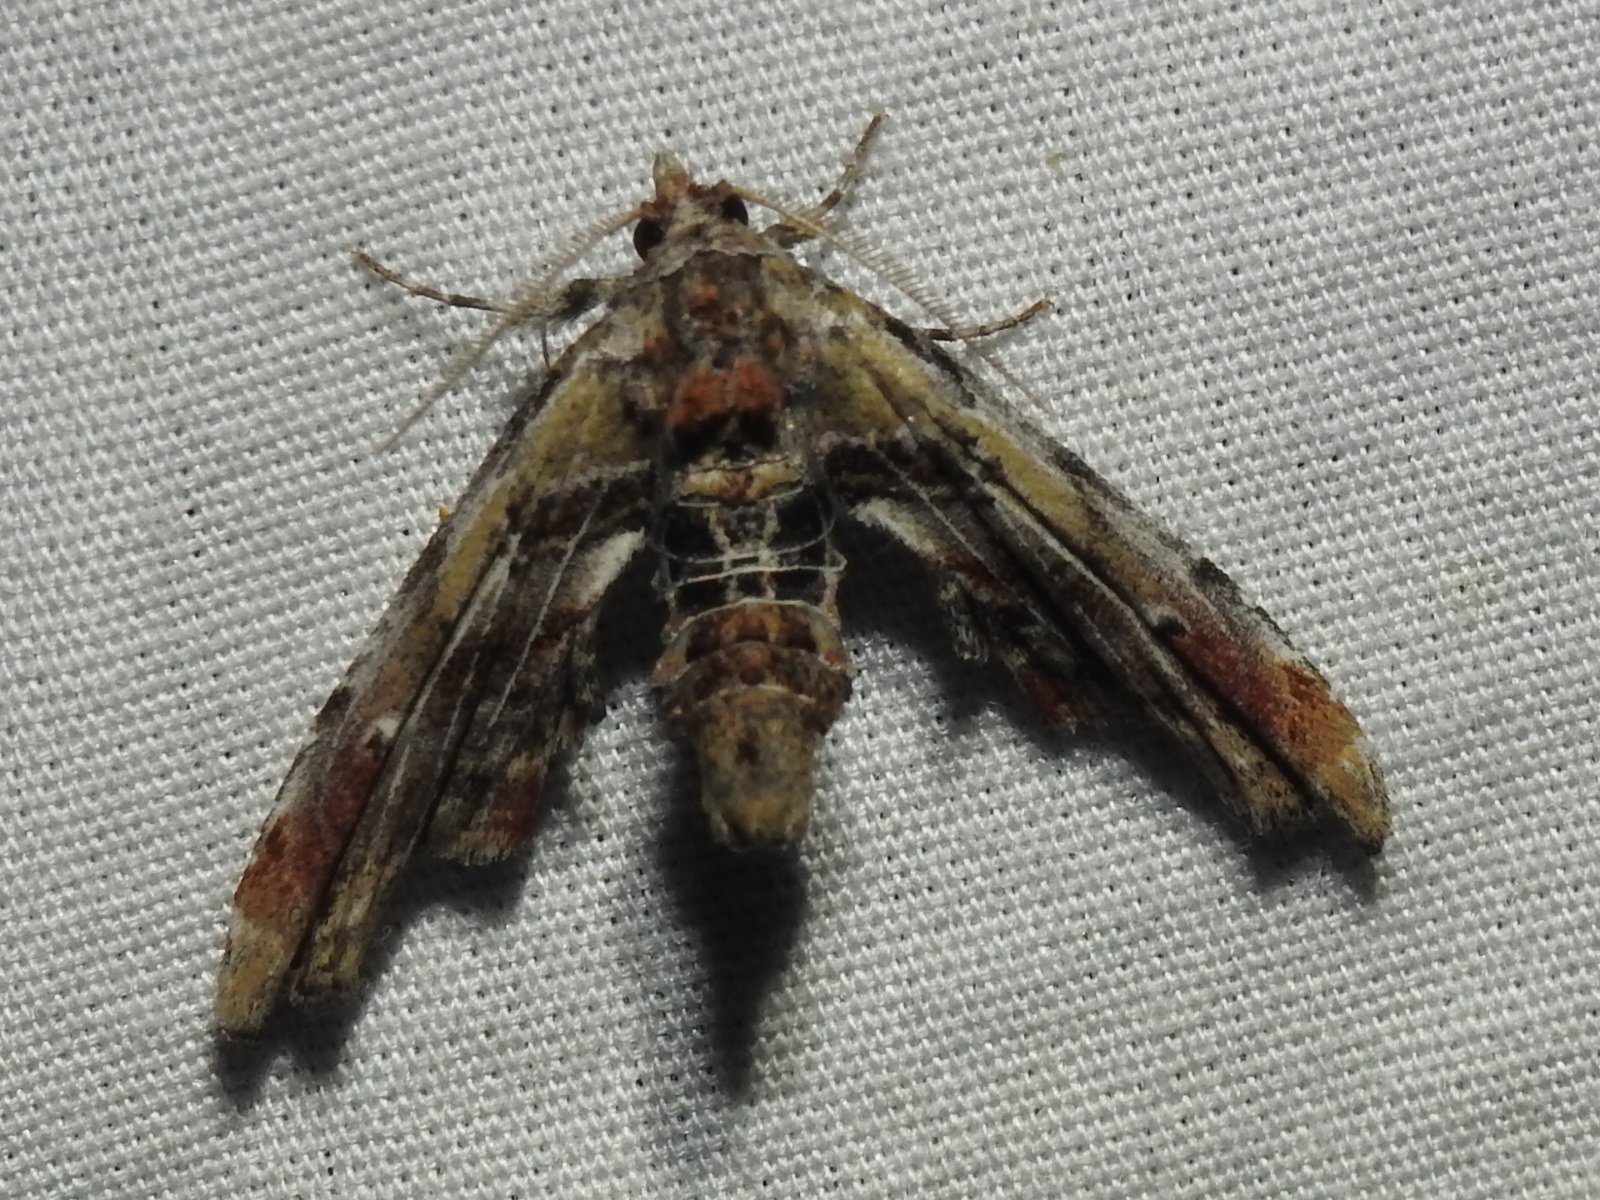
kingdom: Animalia
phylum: Arthropoda
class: Insecta
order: Lepidoptera
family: Euteliidae
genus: Marathyssa
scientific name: Marathyssa basalis
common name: Light marathyssa moth
